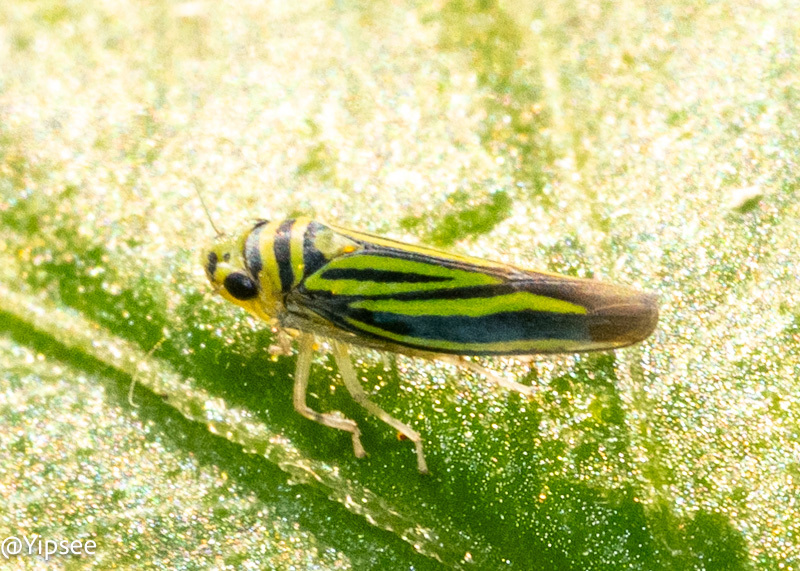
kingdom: Animalia
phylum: Arthropoda
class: Insecta
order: Hemiptera
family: Cicadellidae
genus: Atkinsoniella
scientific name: Atkinsoniella opponens
